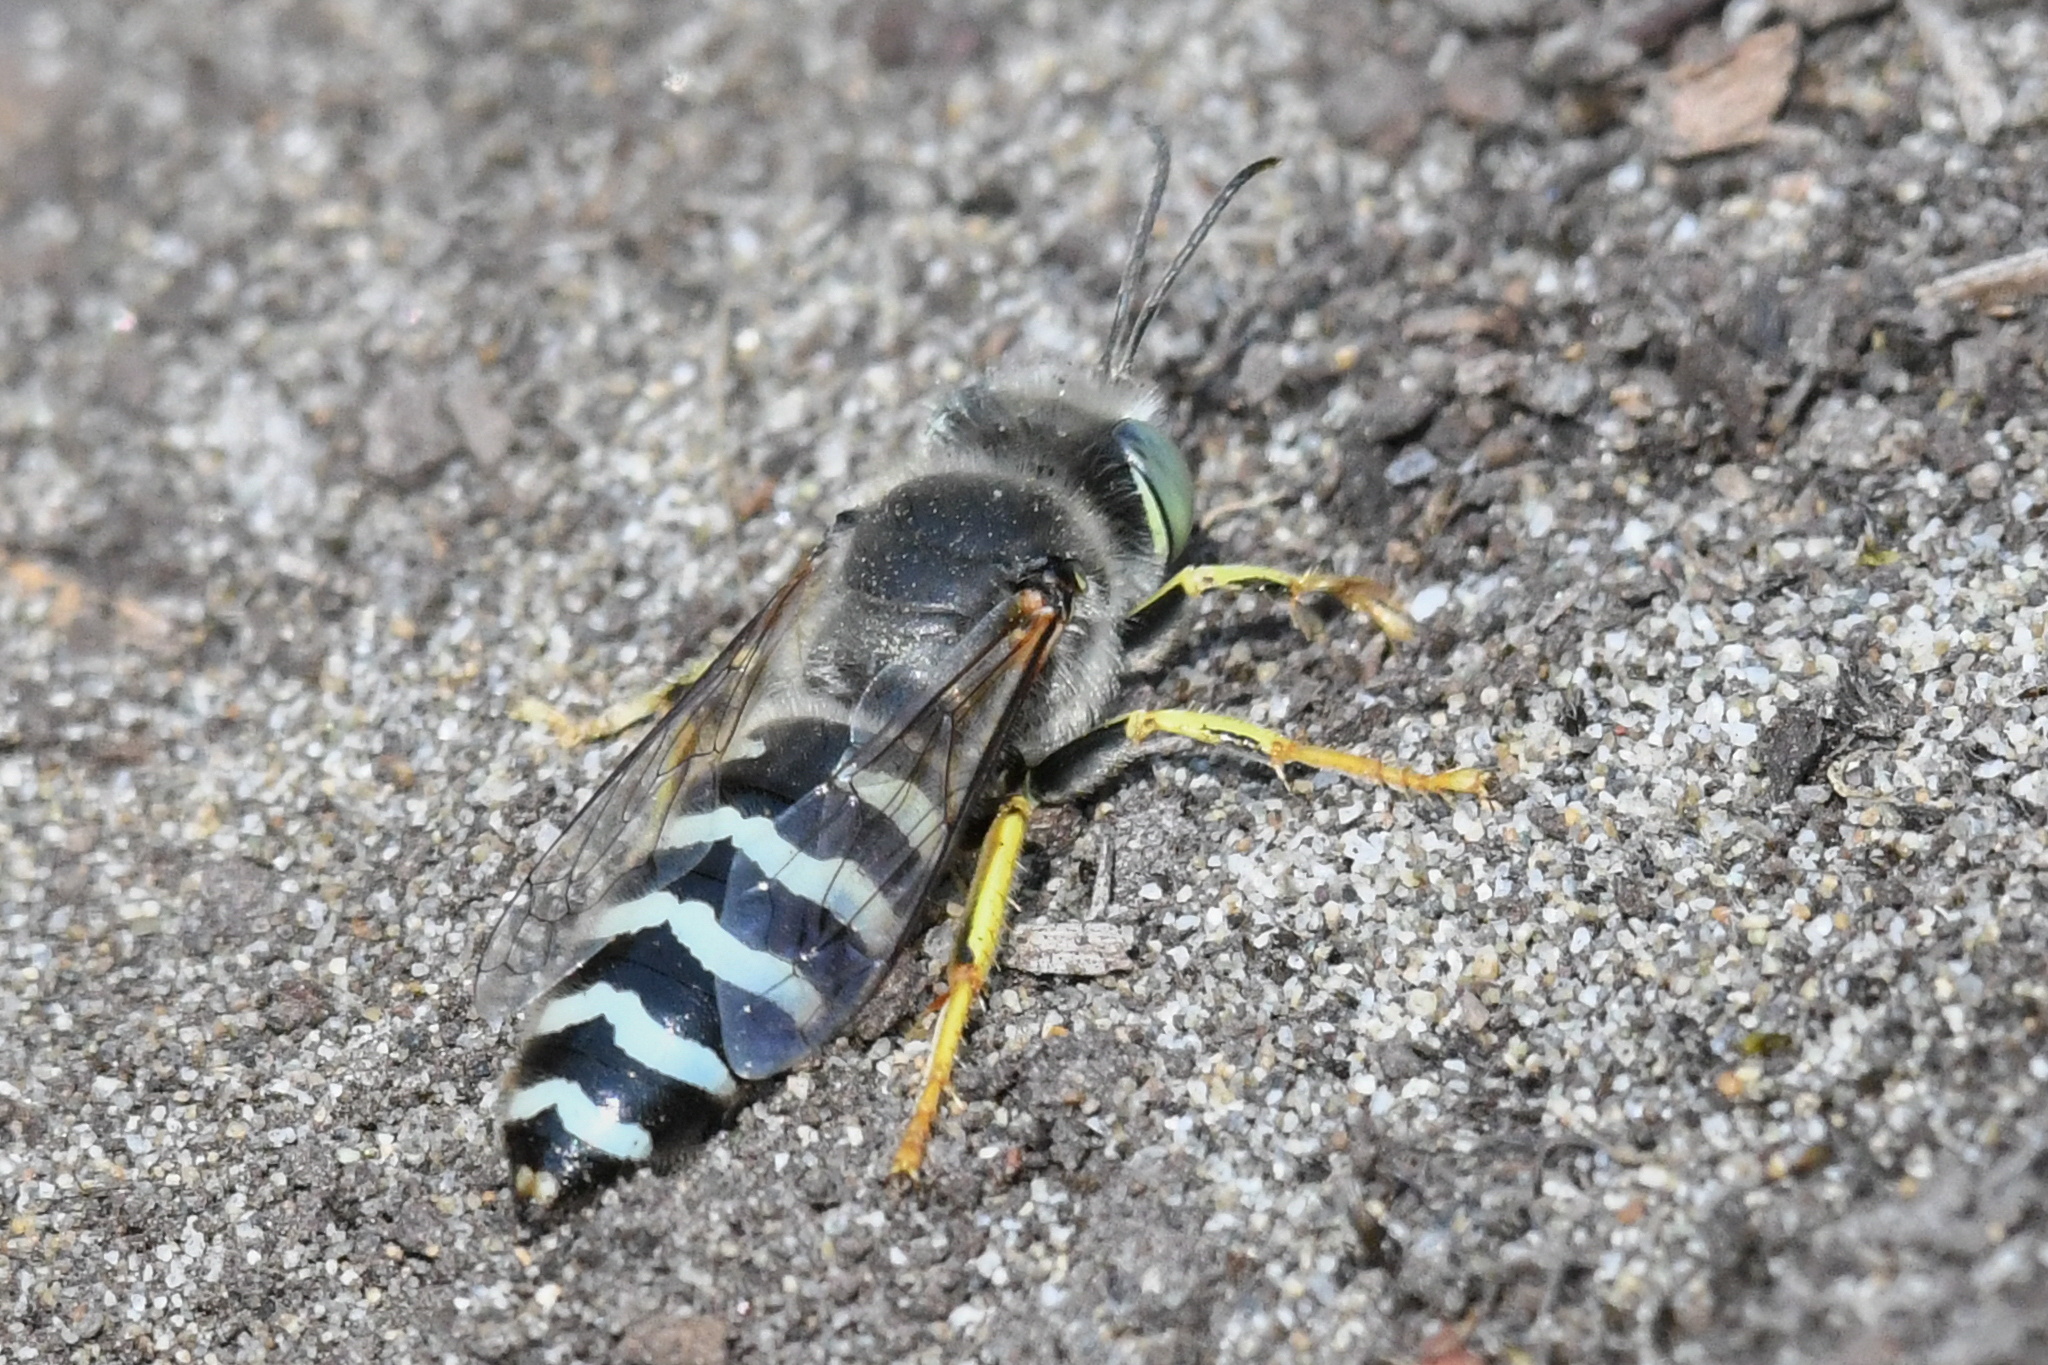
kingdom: Animalia
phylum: Arthropoda
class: Insecta
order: Hymenoptera
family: Crabronidae
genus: Bembix
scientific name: Bembix americana
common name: American sand wasp
